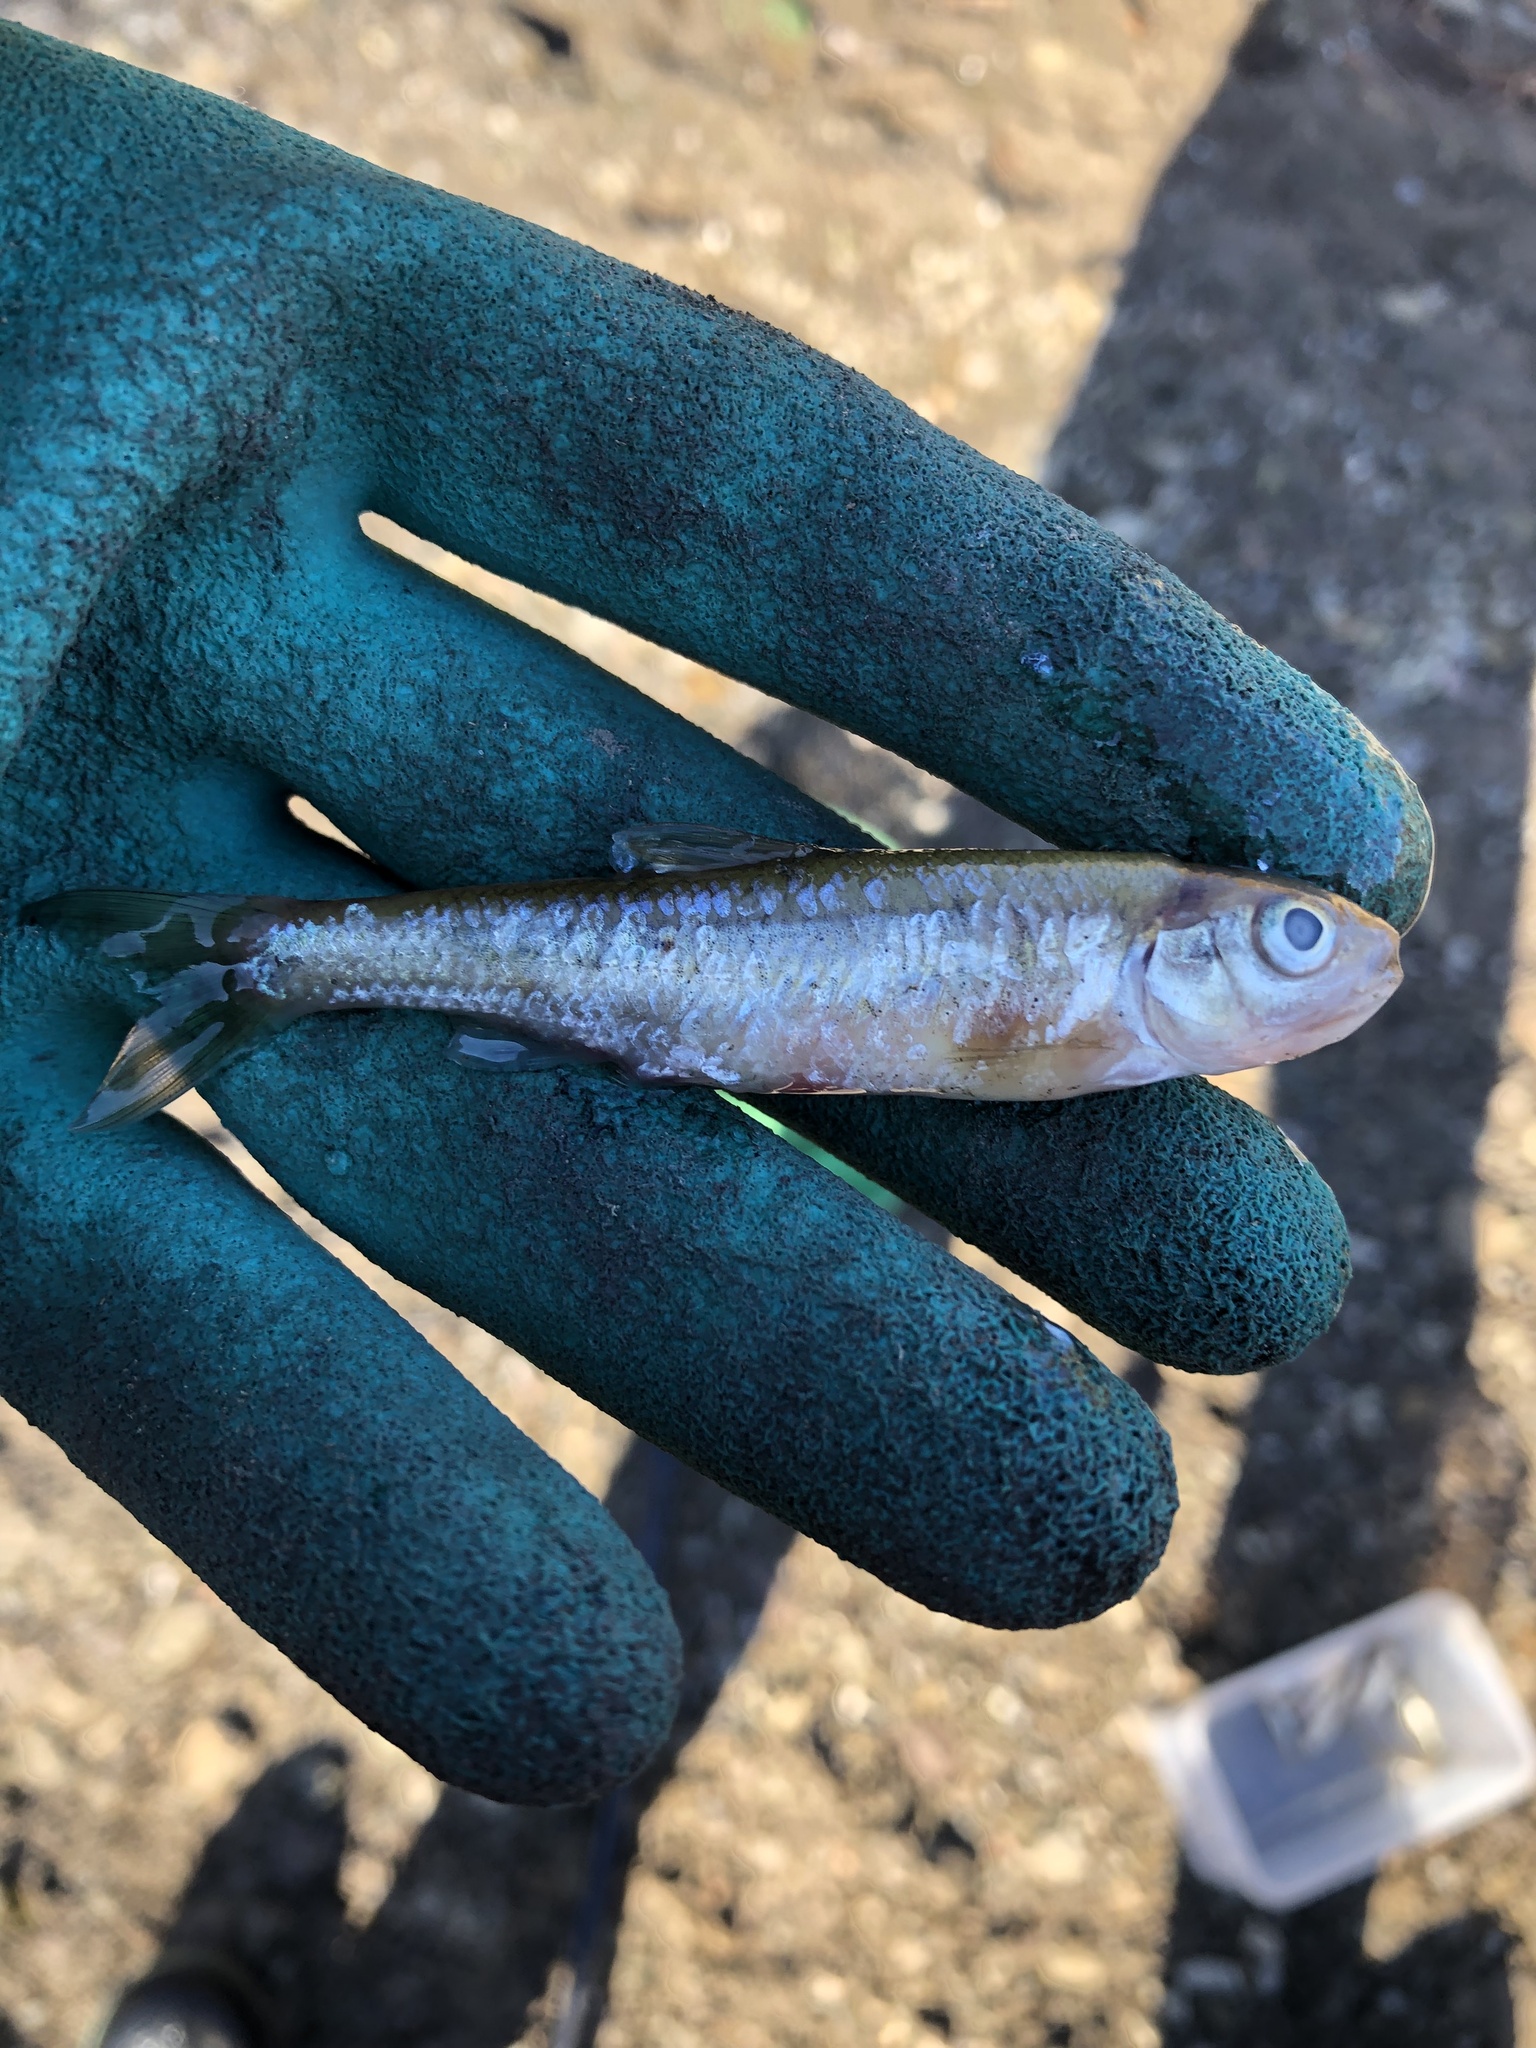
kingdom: Animalia
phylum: Chordata
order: Cypriniformes
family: Cyprinidae
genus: Luxilus
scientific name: Luxilus cornutus
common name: Common shiner
